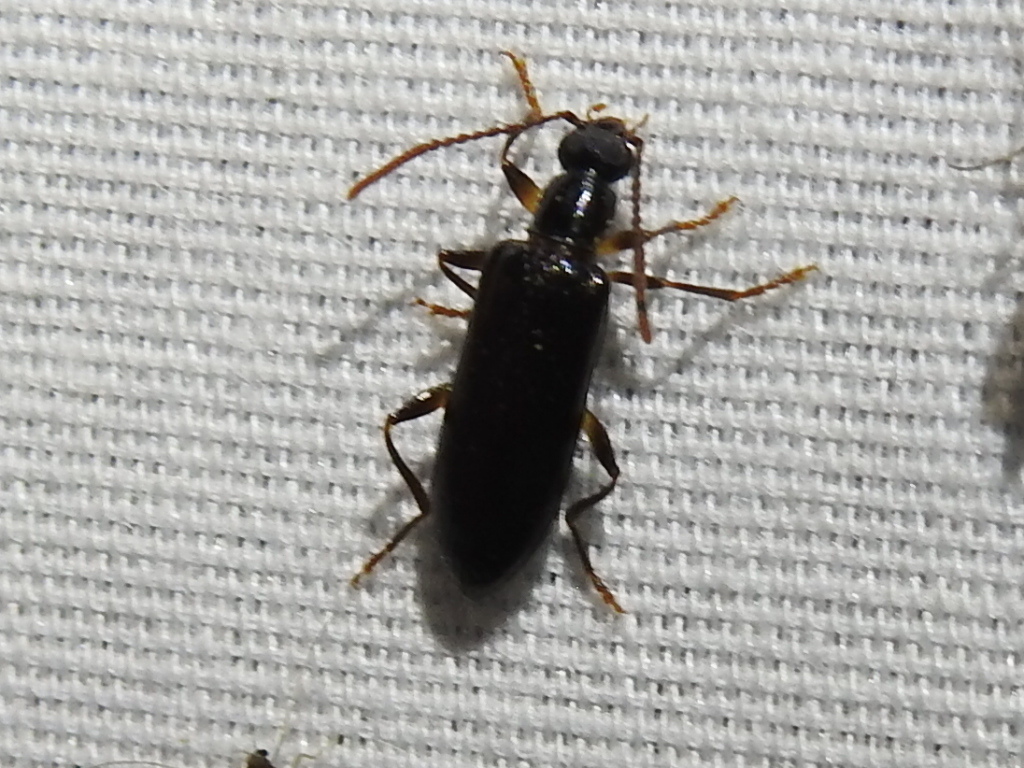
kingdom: Animalia
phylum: Arthropoda
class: Insecta
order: Coleoptera
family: Tenebrionidae
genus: Statira
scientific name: Statira basalis
